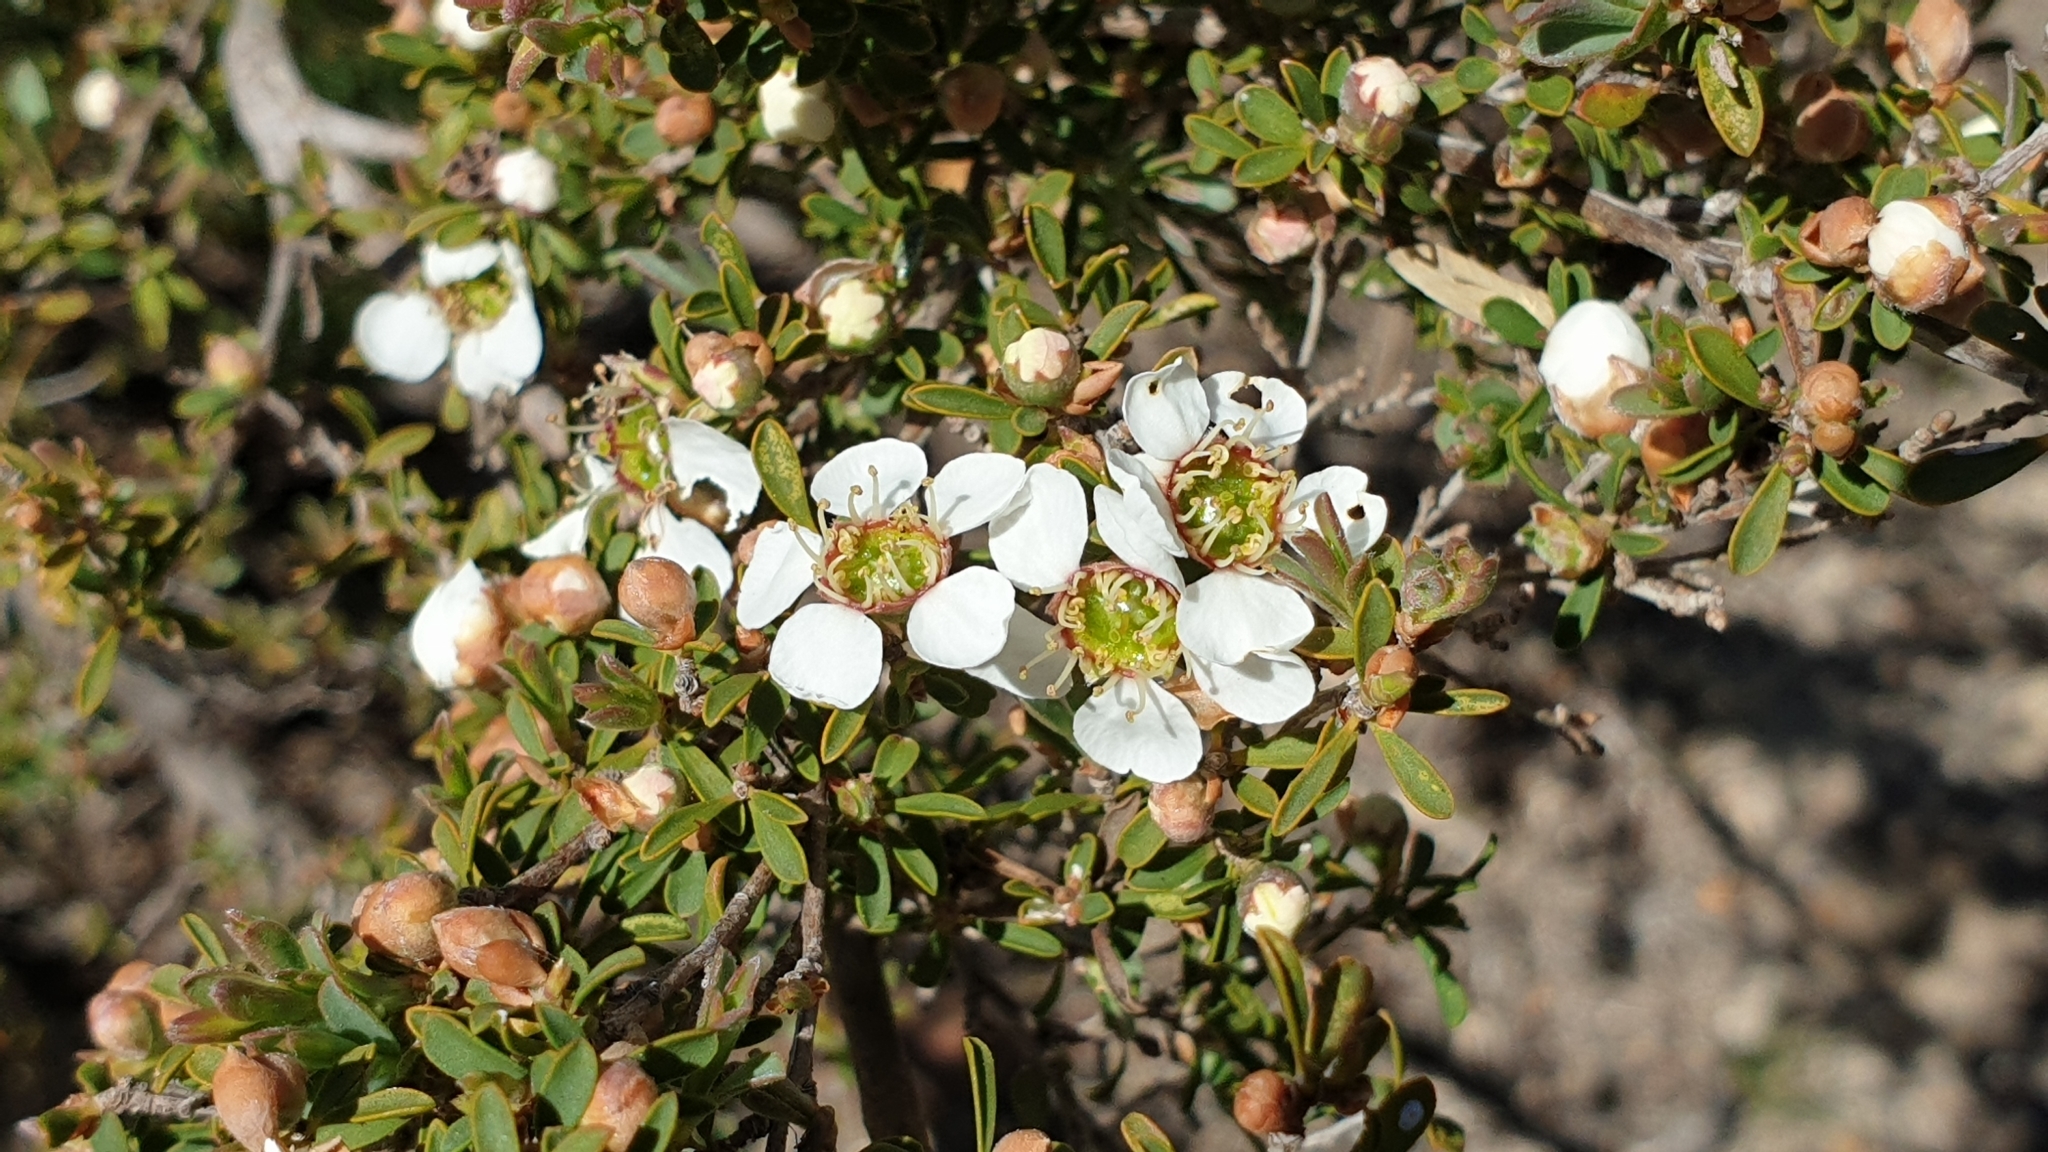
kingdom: Plantae
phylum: Tracheophyta
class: Magnoliopsida
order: Myrtales
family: Myrtaceae
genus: Leptospermum
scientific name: Leptospermum myrsinoides
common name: Heath teatree
